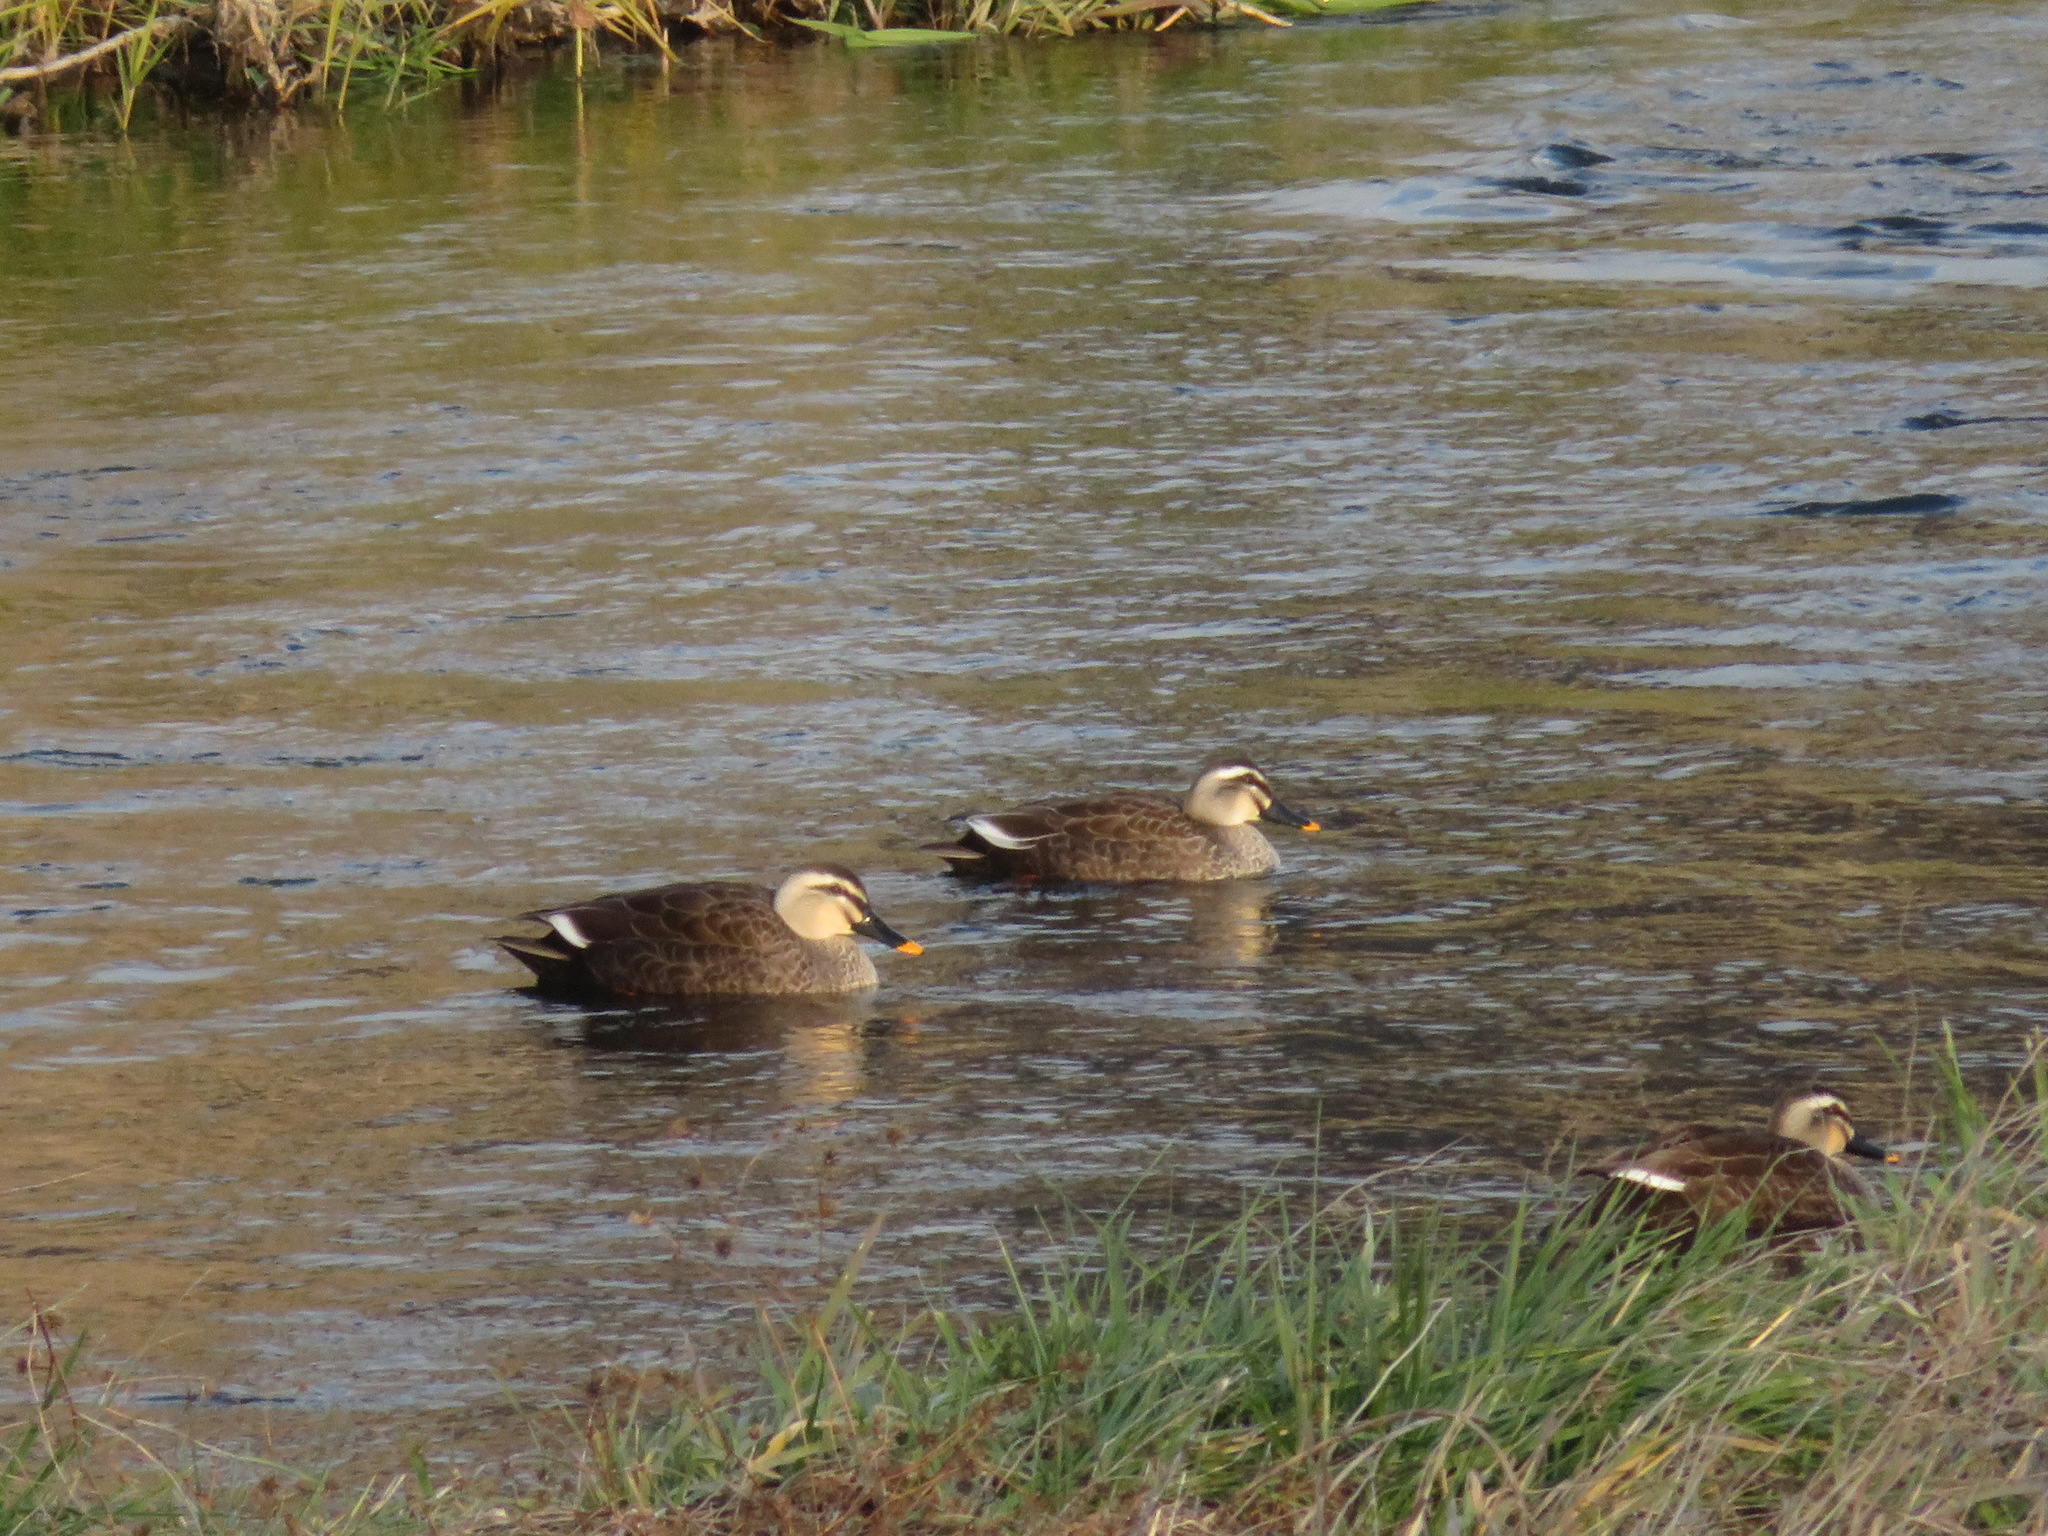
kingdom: Animalia
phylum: Chordata
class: Aves
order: Anseriformes
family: Anatidae
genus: Anas
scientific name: Anas zonorhyncha
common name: Eastern spot-billed duck
